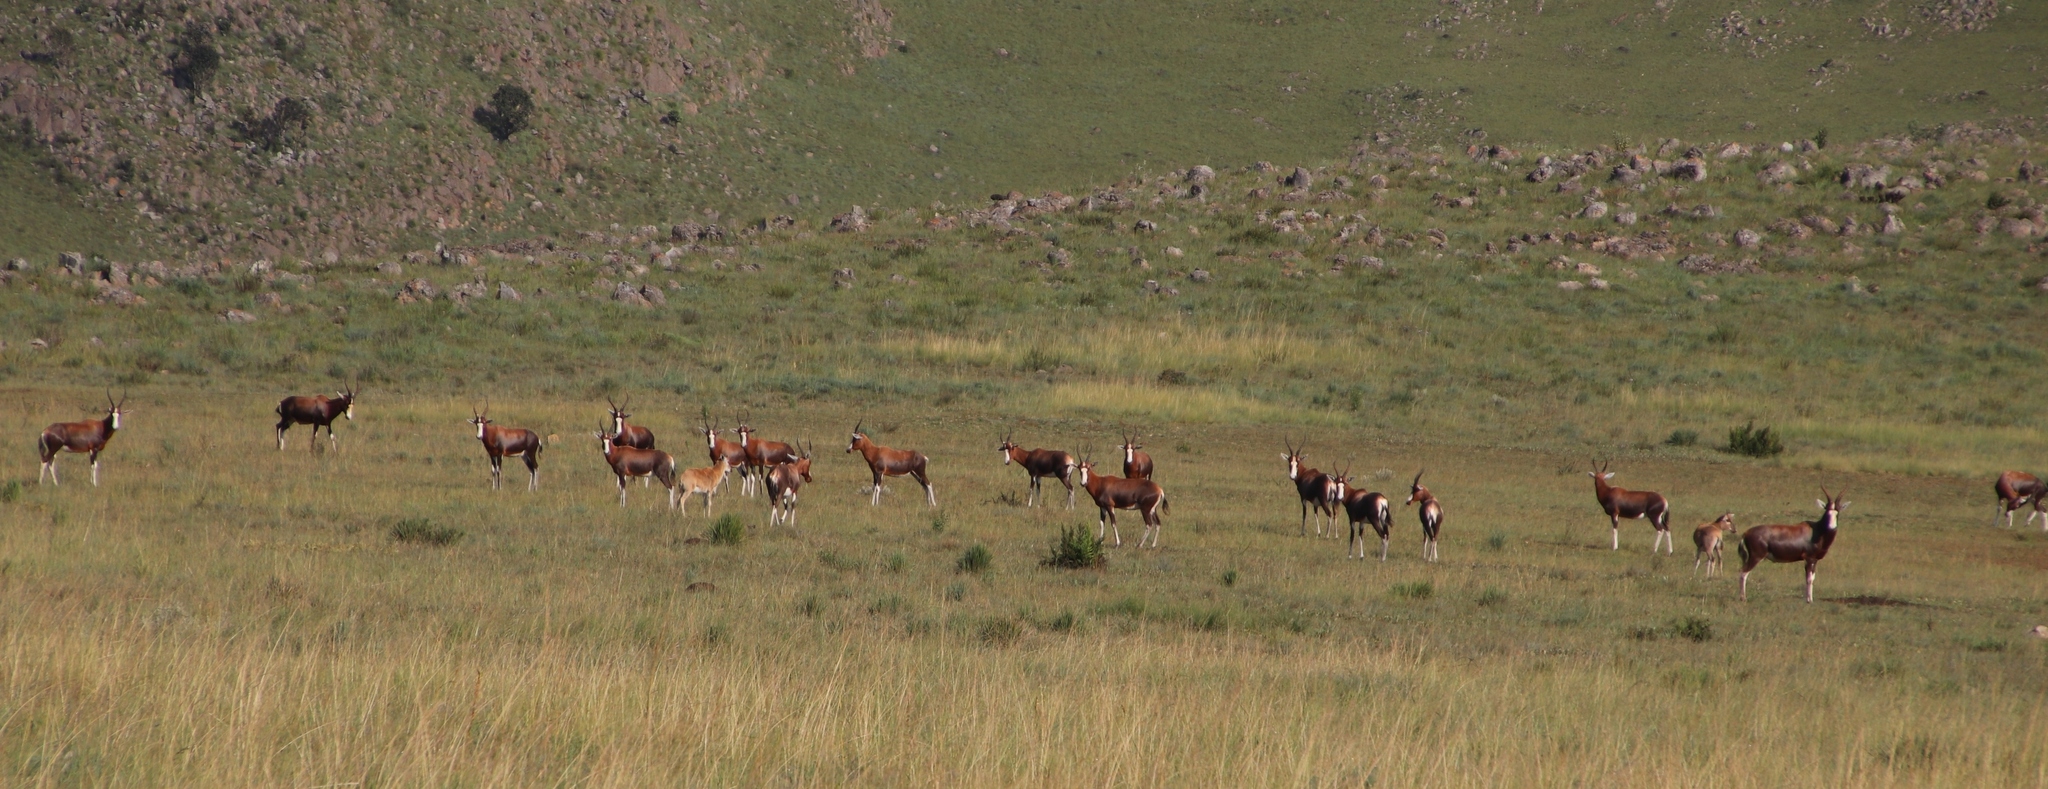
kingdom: Animalia
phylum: Chordata
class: Mammalia
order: Artiodactyla
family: Bovidae
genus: Damaliscus
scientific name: Damaliscus pygargus
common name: Bontebok
